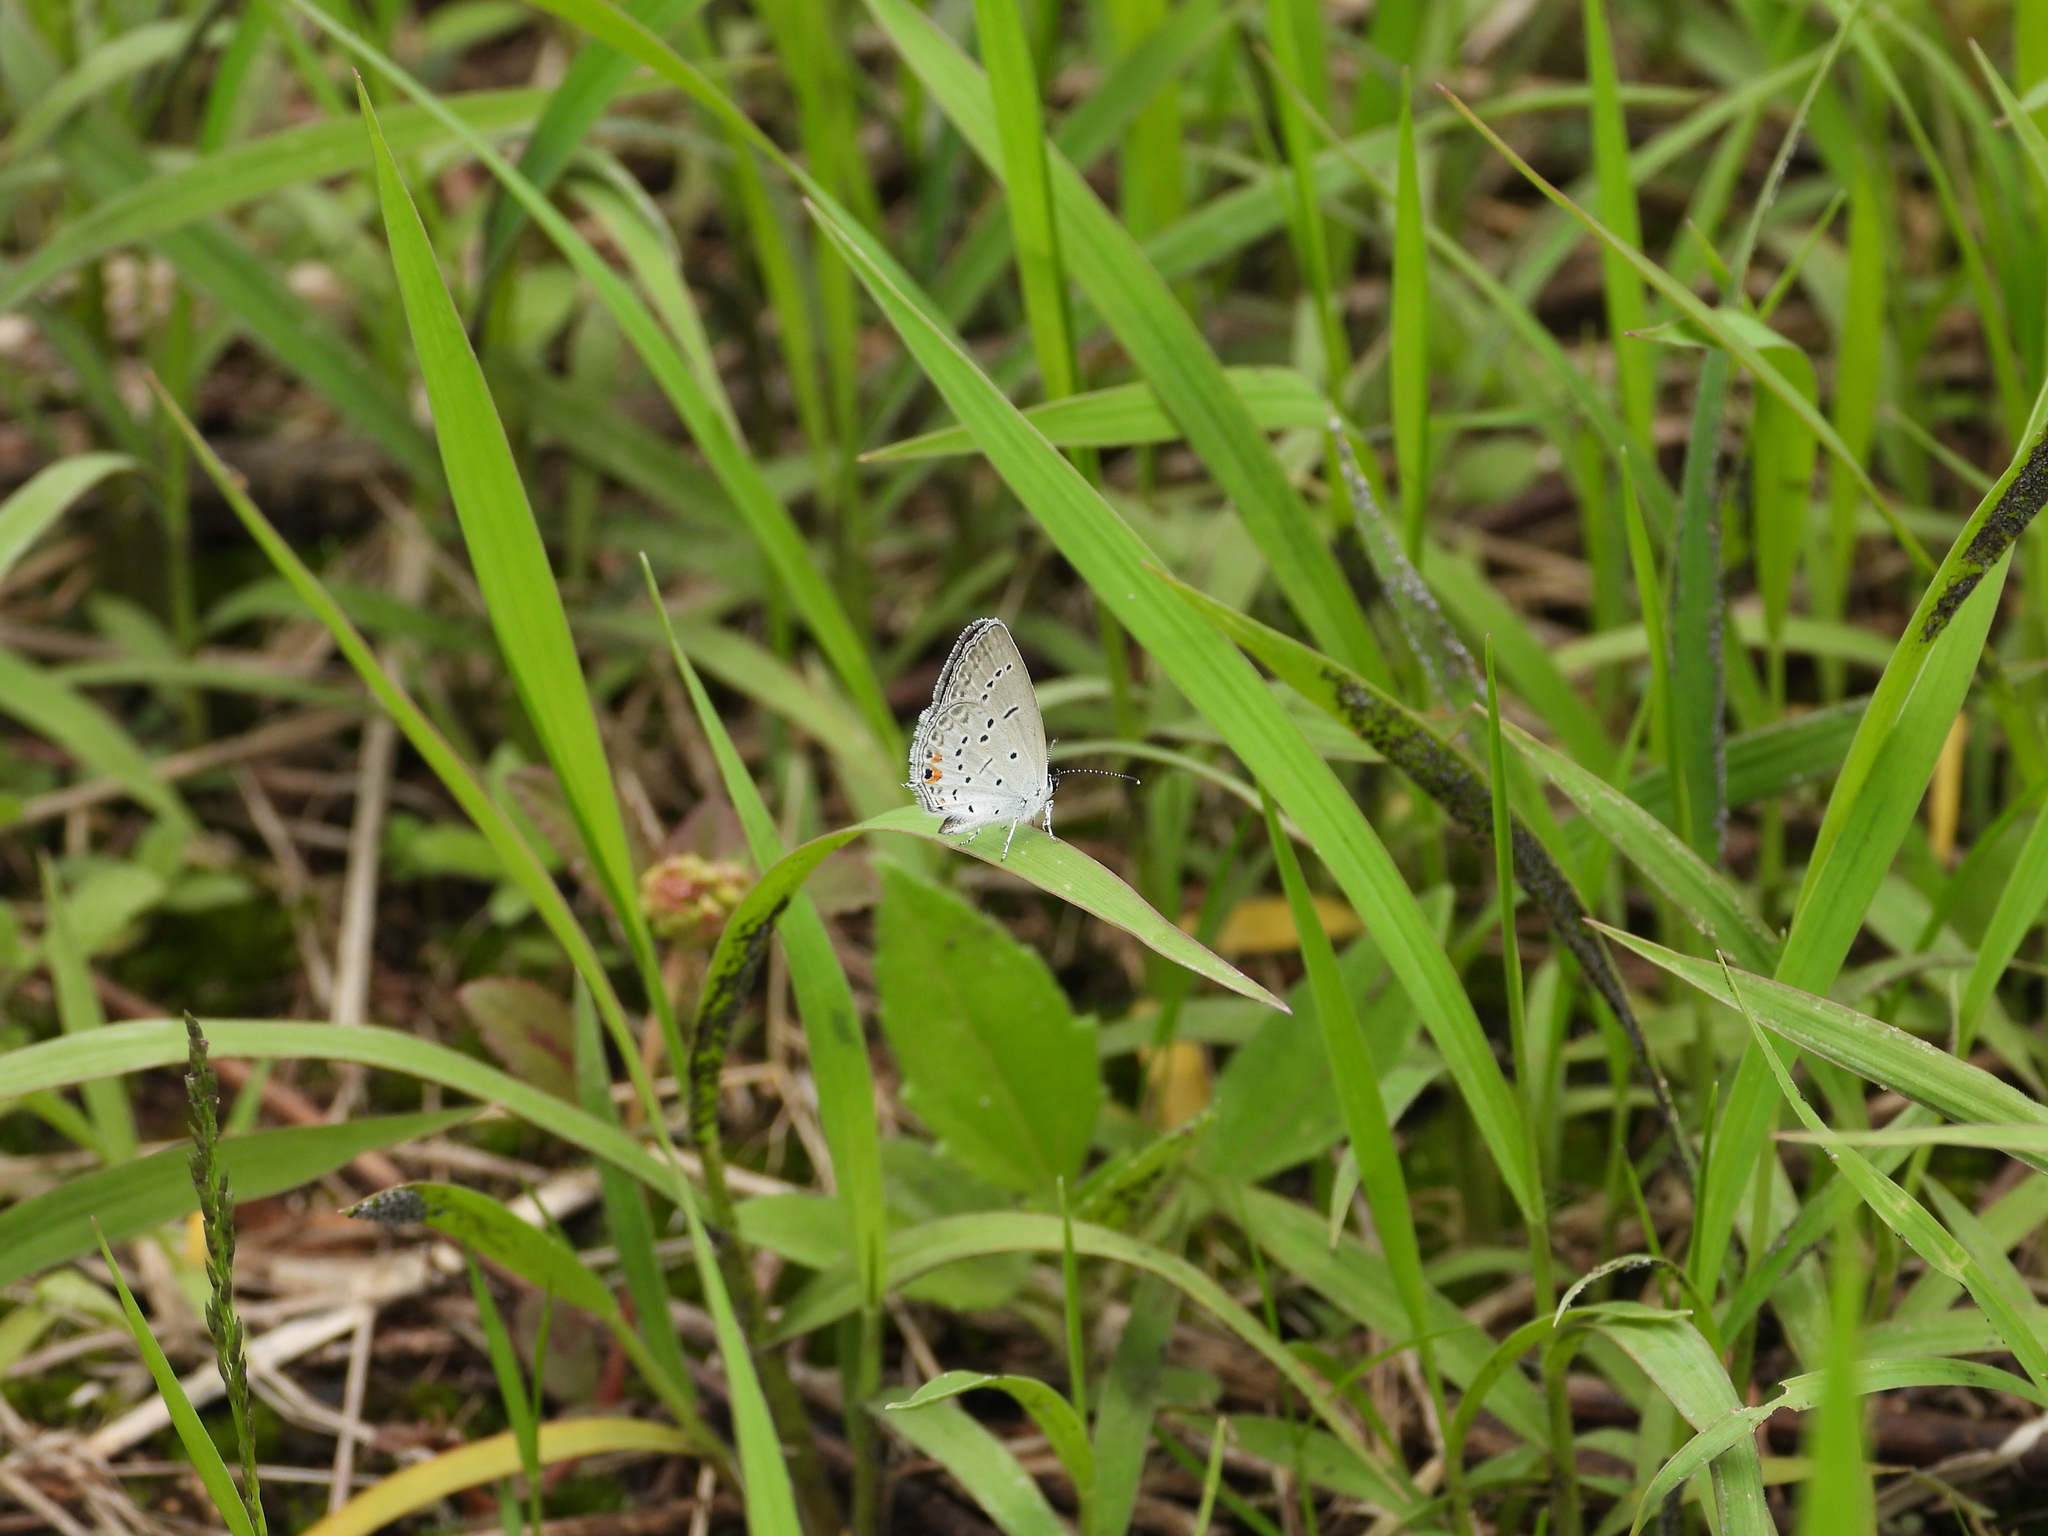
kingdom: Animalia
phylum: Arthropoda
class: Insecta
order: Lepidoptera
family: Lycaenidae
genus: Elkalyce
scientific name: Elkalyce comyntas
